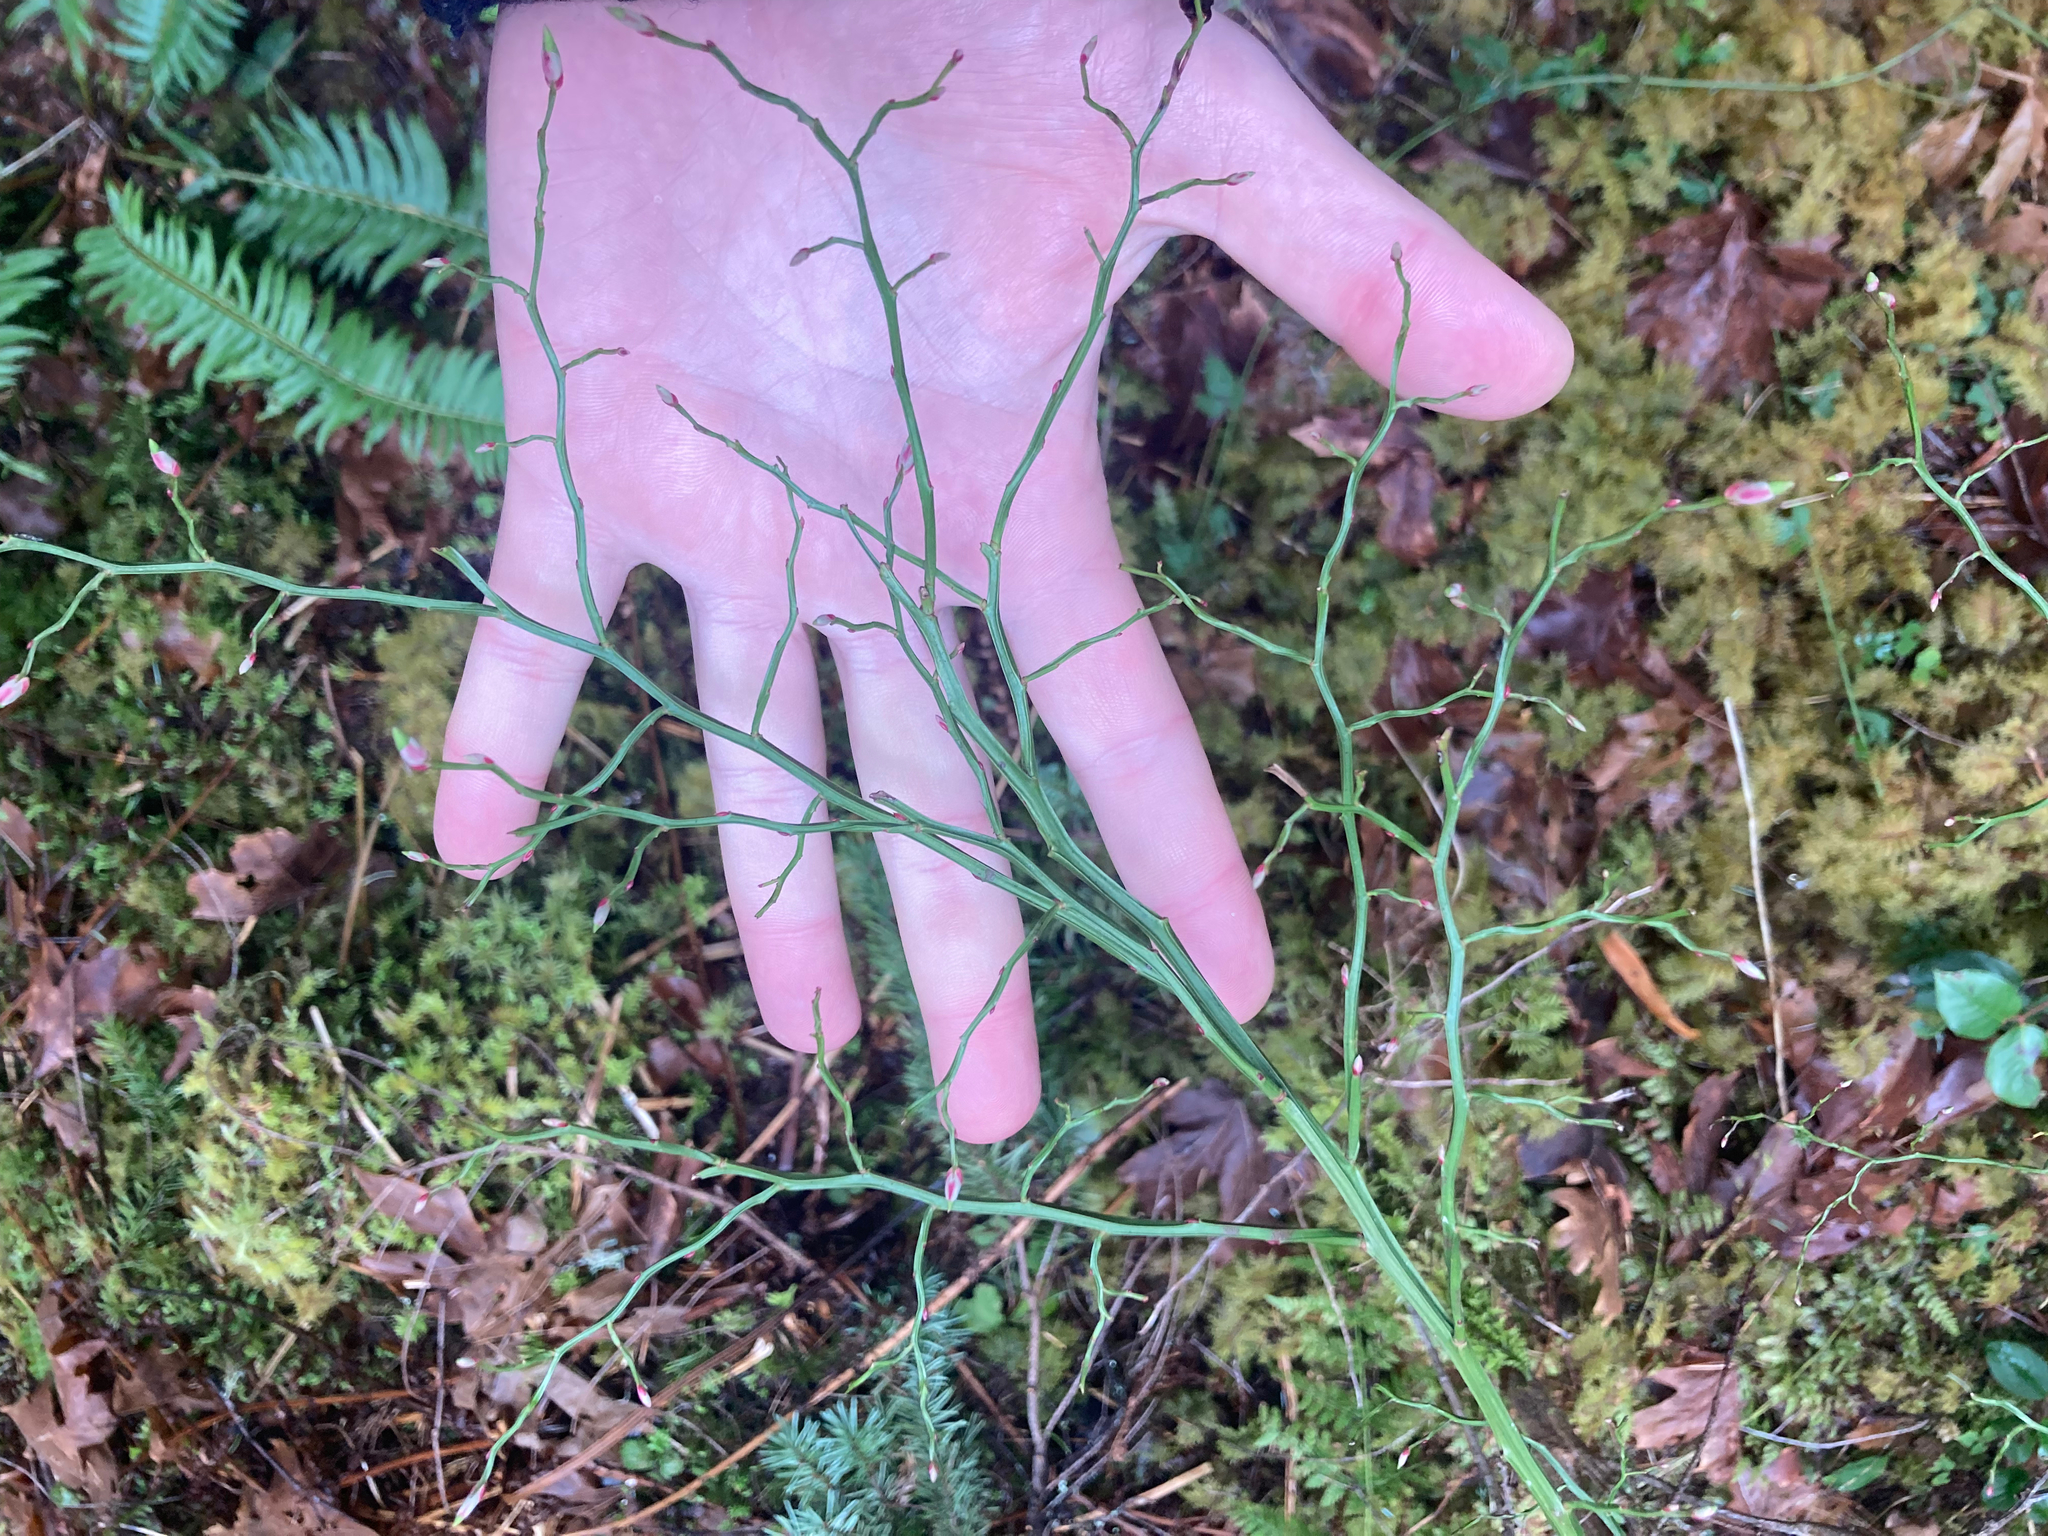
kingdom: Plantae
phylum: Tracheophyta
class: Magnoliopsida
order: Ericales
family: Ericaceae
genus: Vaccinium
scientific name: Vaccinium parvifolium
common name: Red-huckleberry
